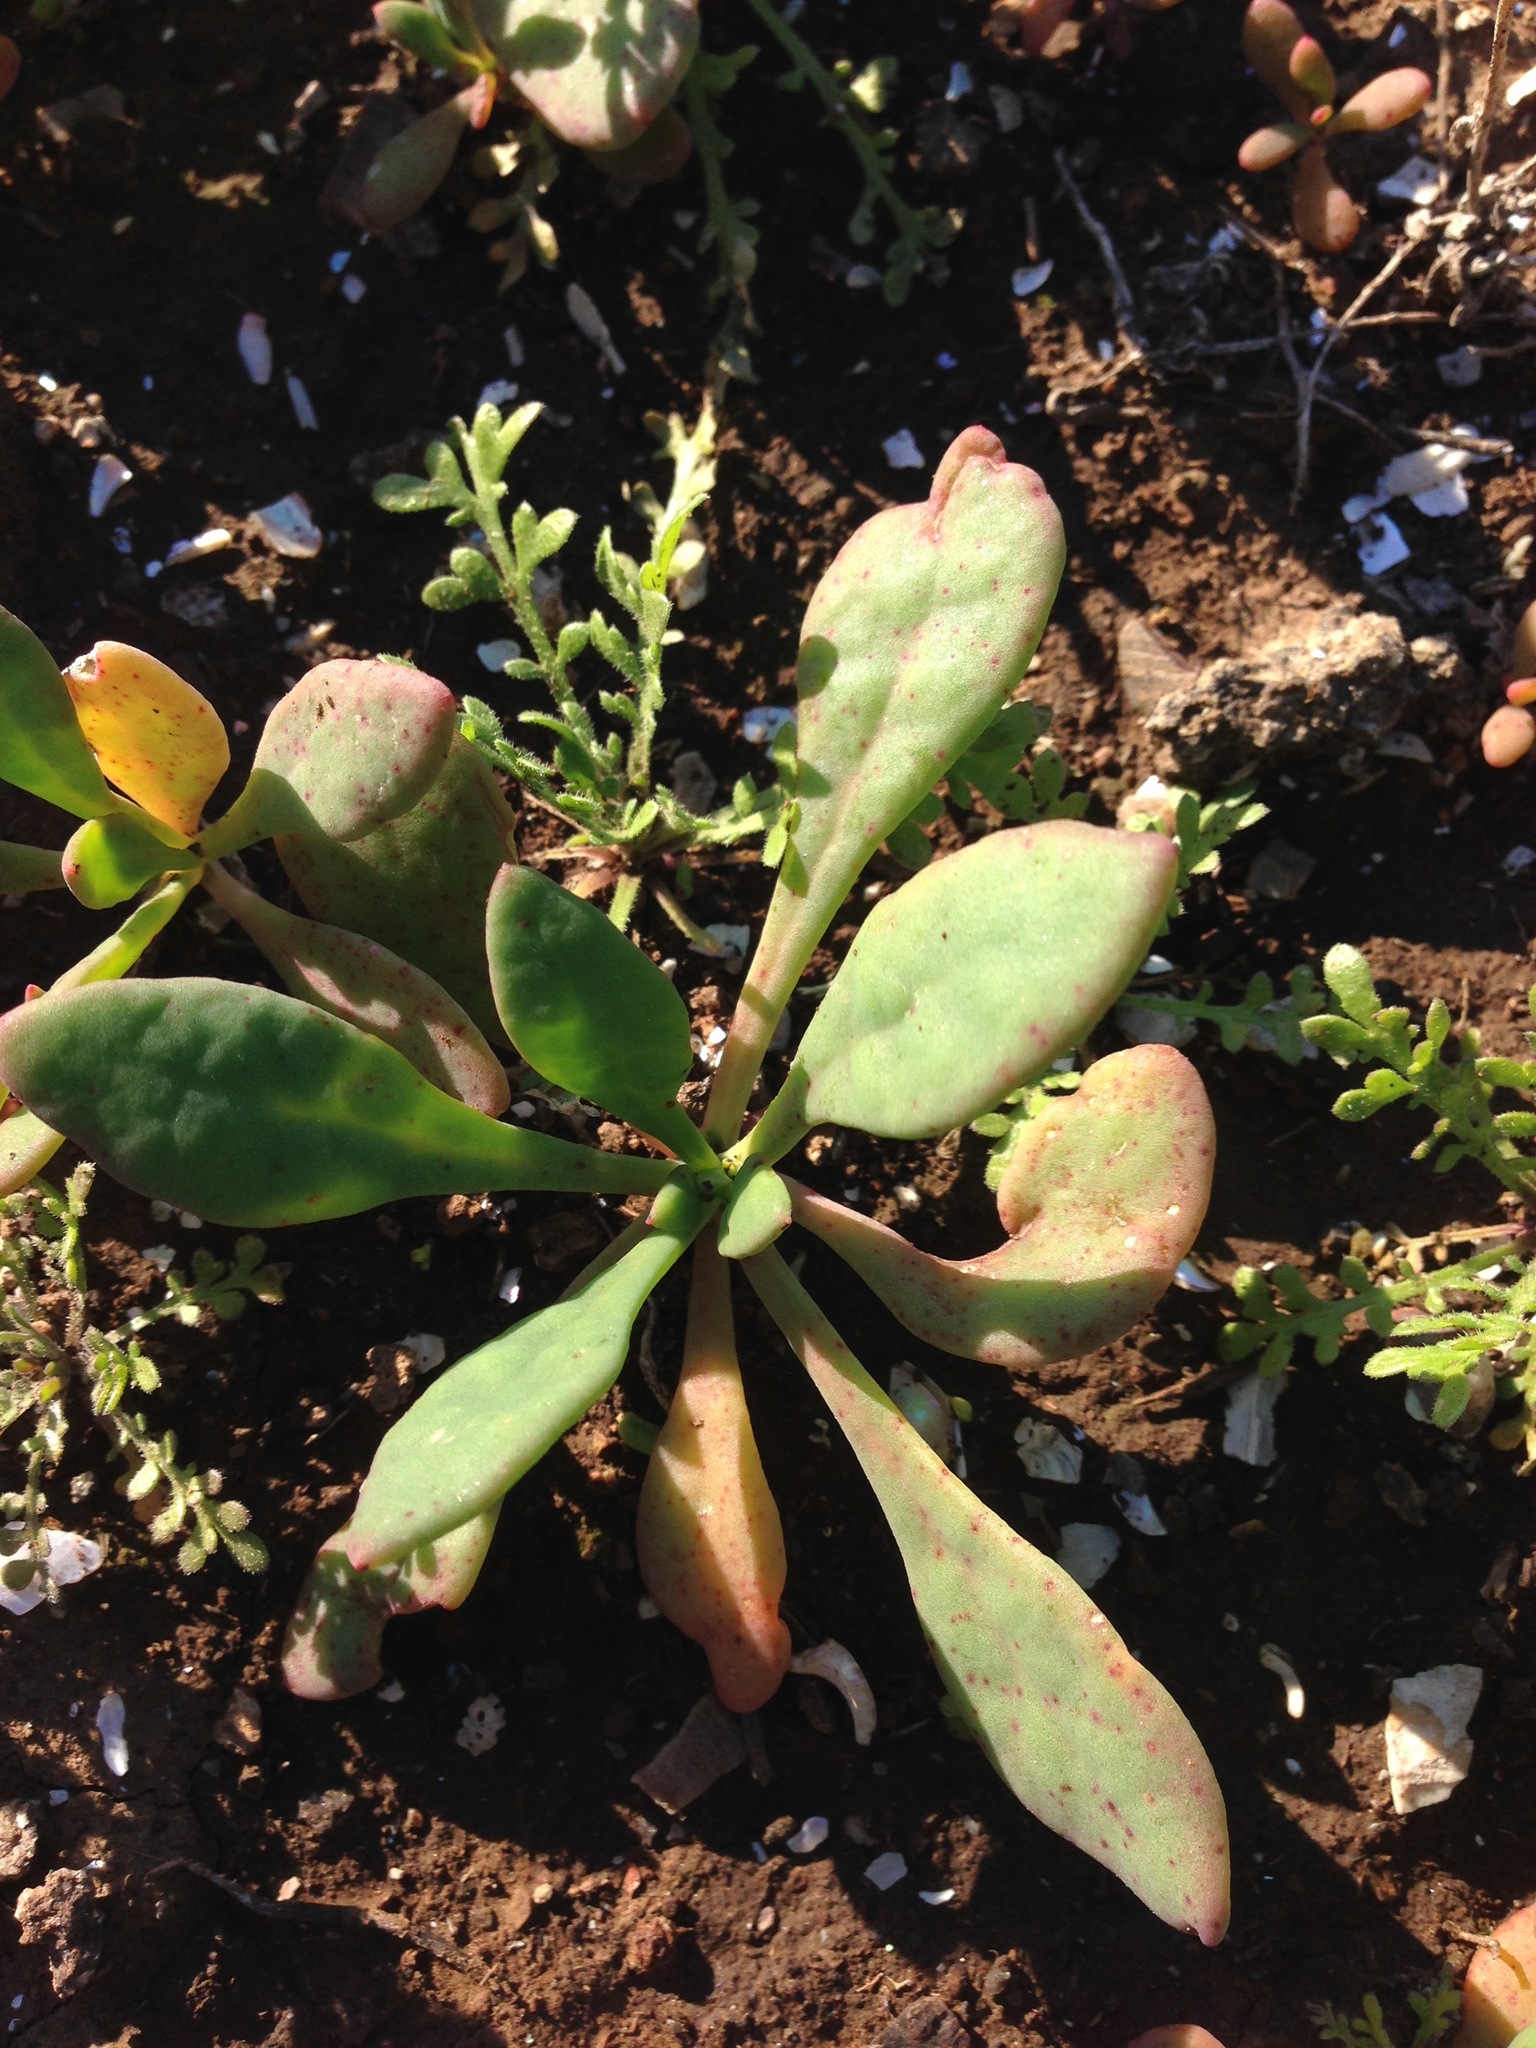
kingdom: Plantae
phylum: Tracheophyta
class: Magnoliopsida
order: Caryophyllales
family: Montiaceae
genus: Cistanthe
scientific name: Cistanthe maritima
